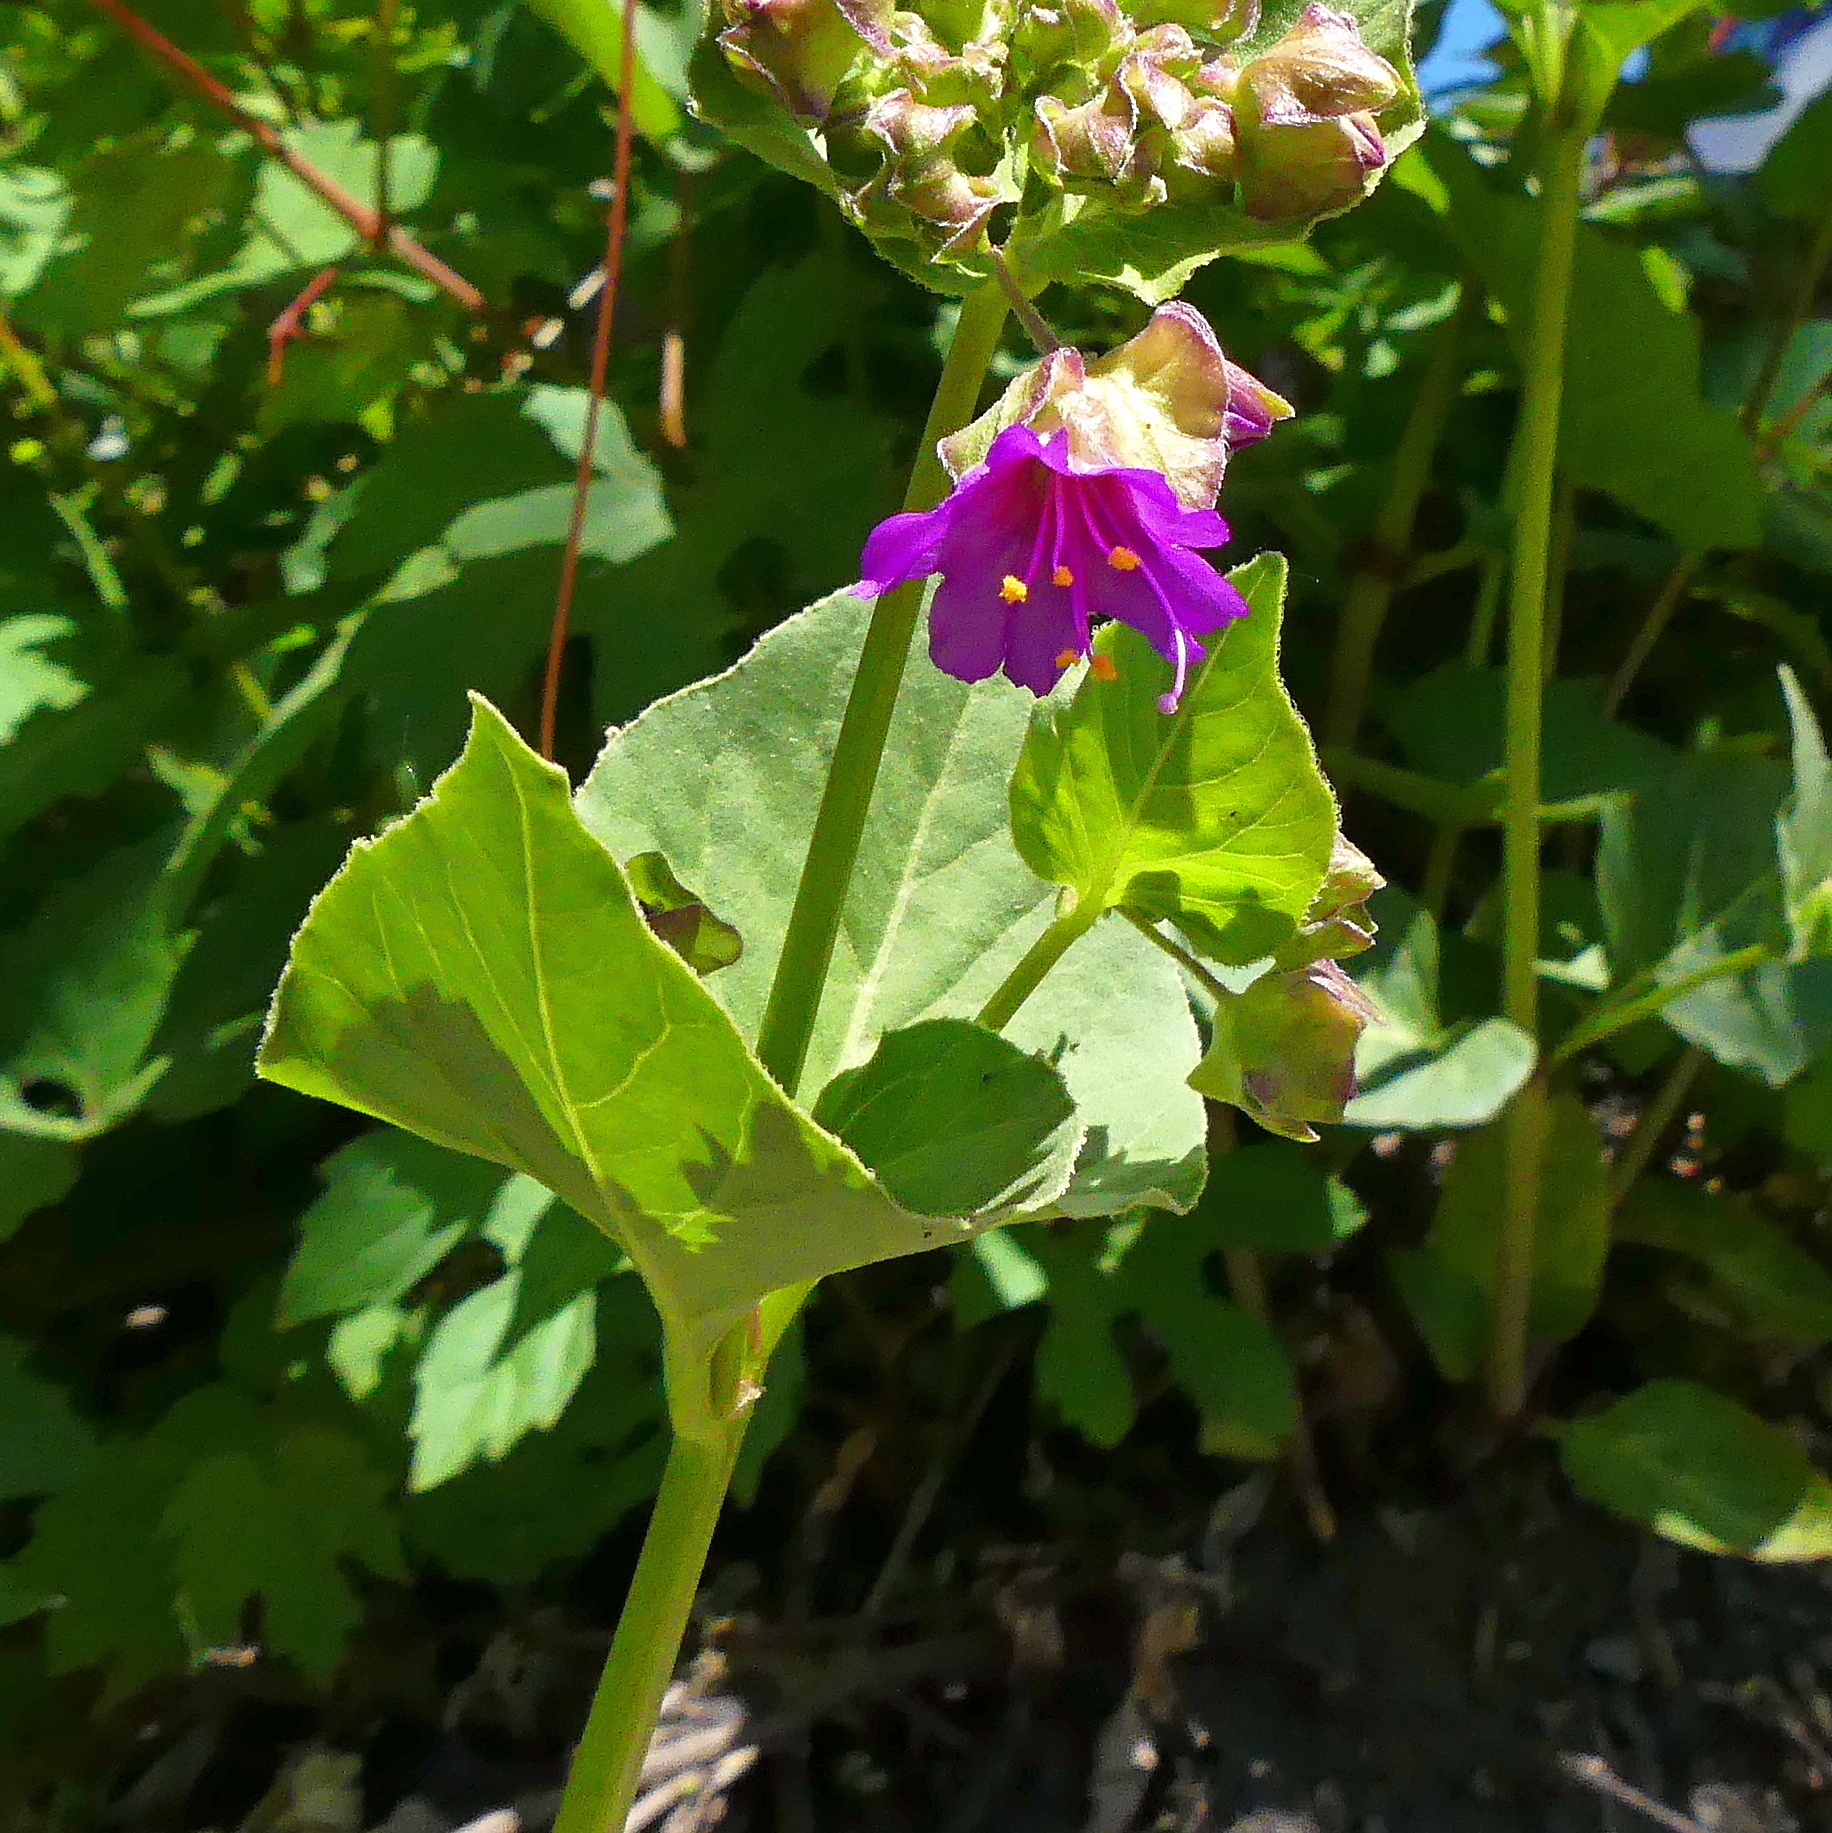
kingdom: Plantae
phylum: Tracheophyta
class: Magnoliopsida
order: Caryophyllales
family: Nyctaginaceae
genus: Mirabilis
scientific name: Mirabilis nyctaginea
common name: Umbrella wort
